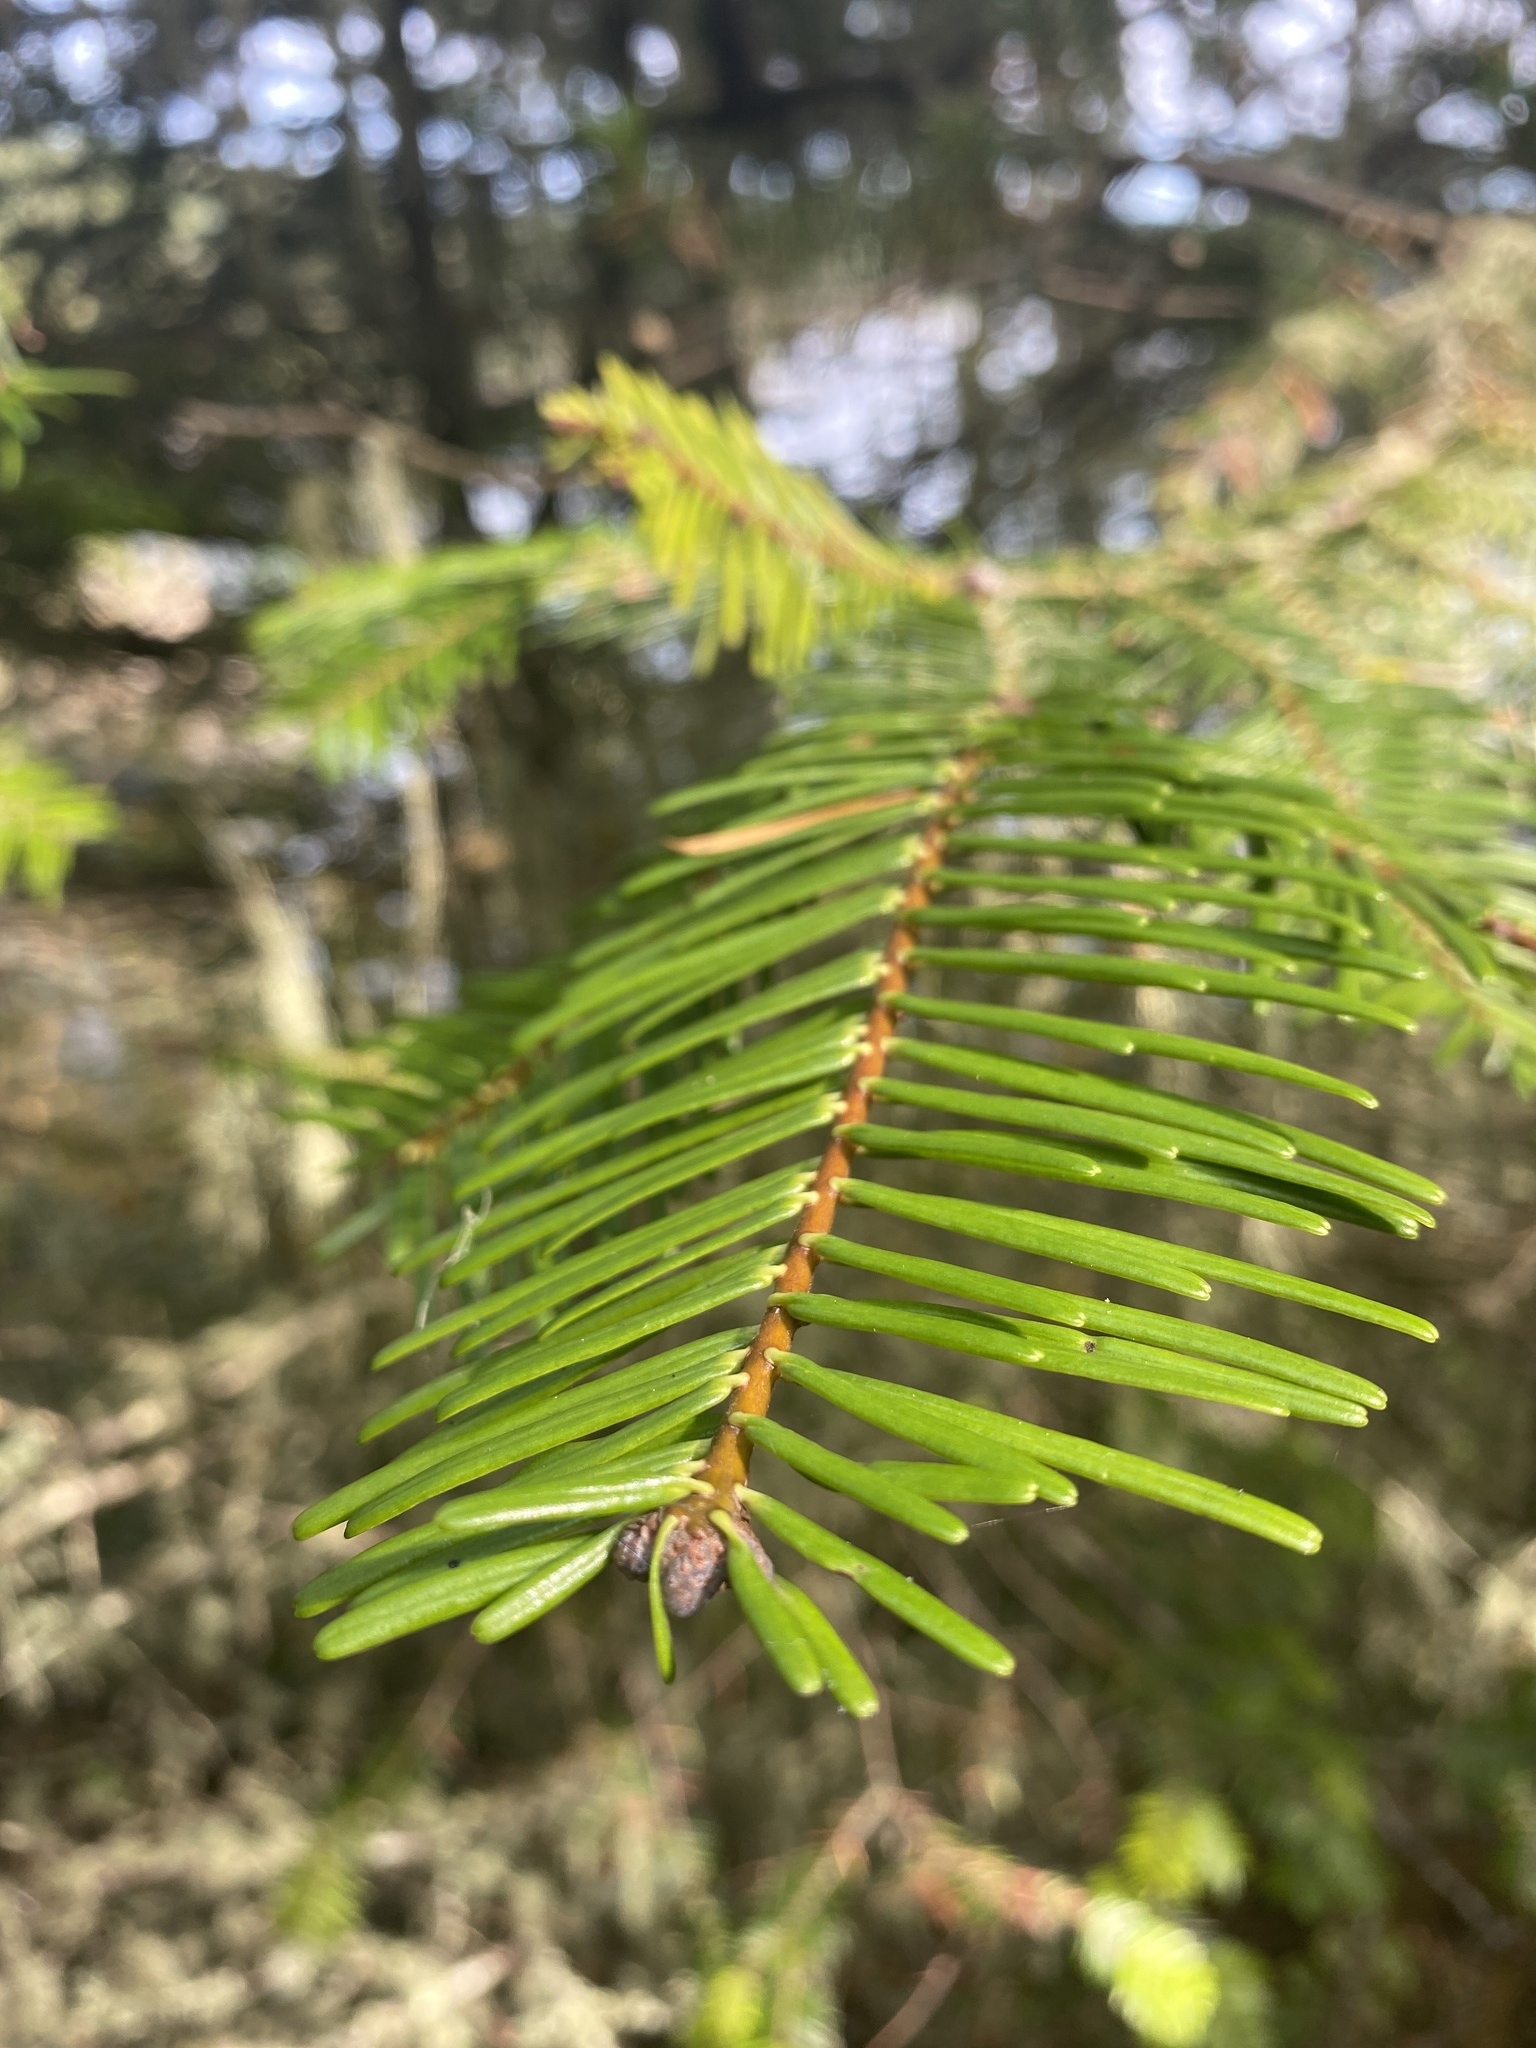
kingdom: Plantae
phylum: Tracheophyta
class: Pinopsida
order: Pinales
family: Pinaceae
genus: Abies
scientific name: Abies grandis
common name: Giant fir
